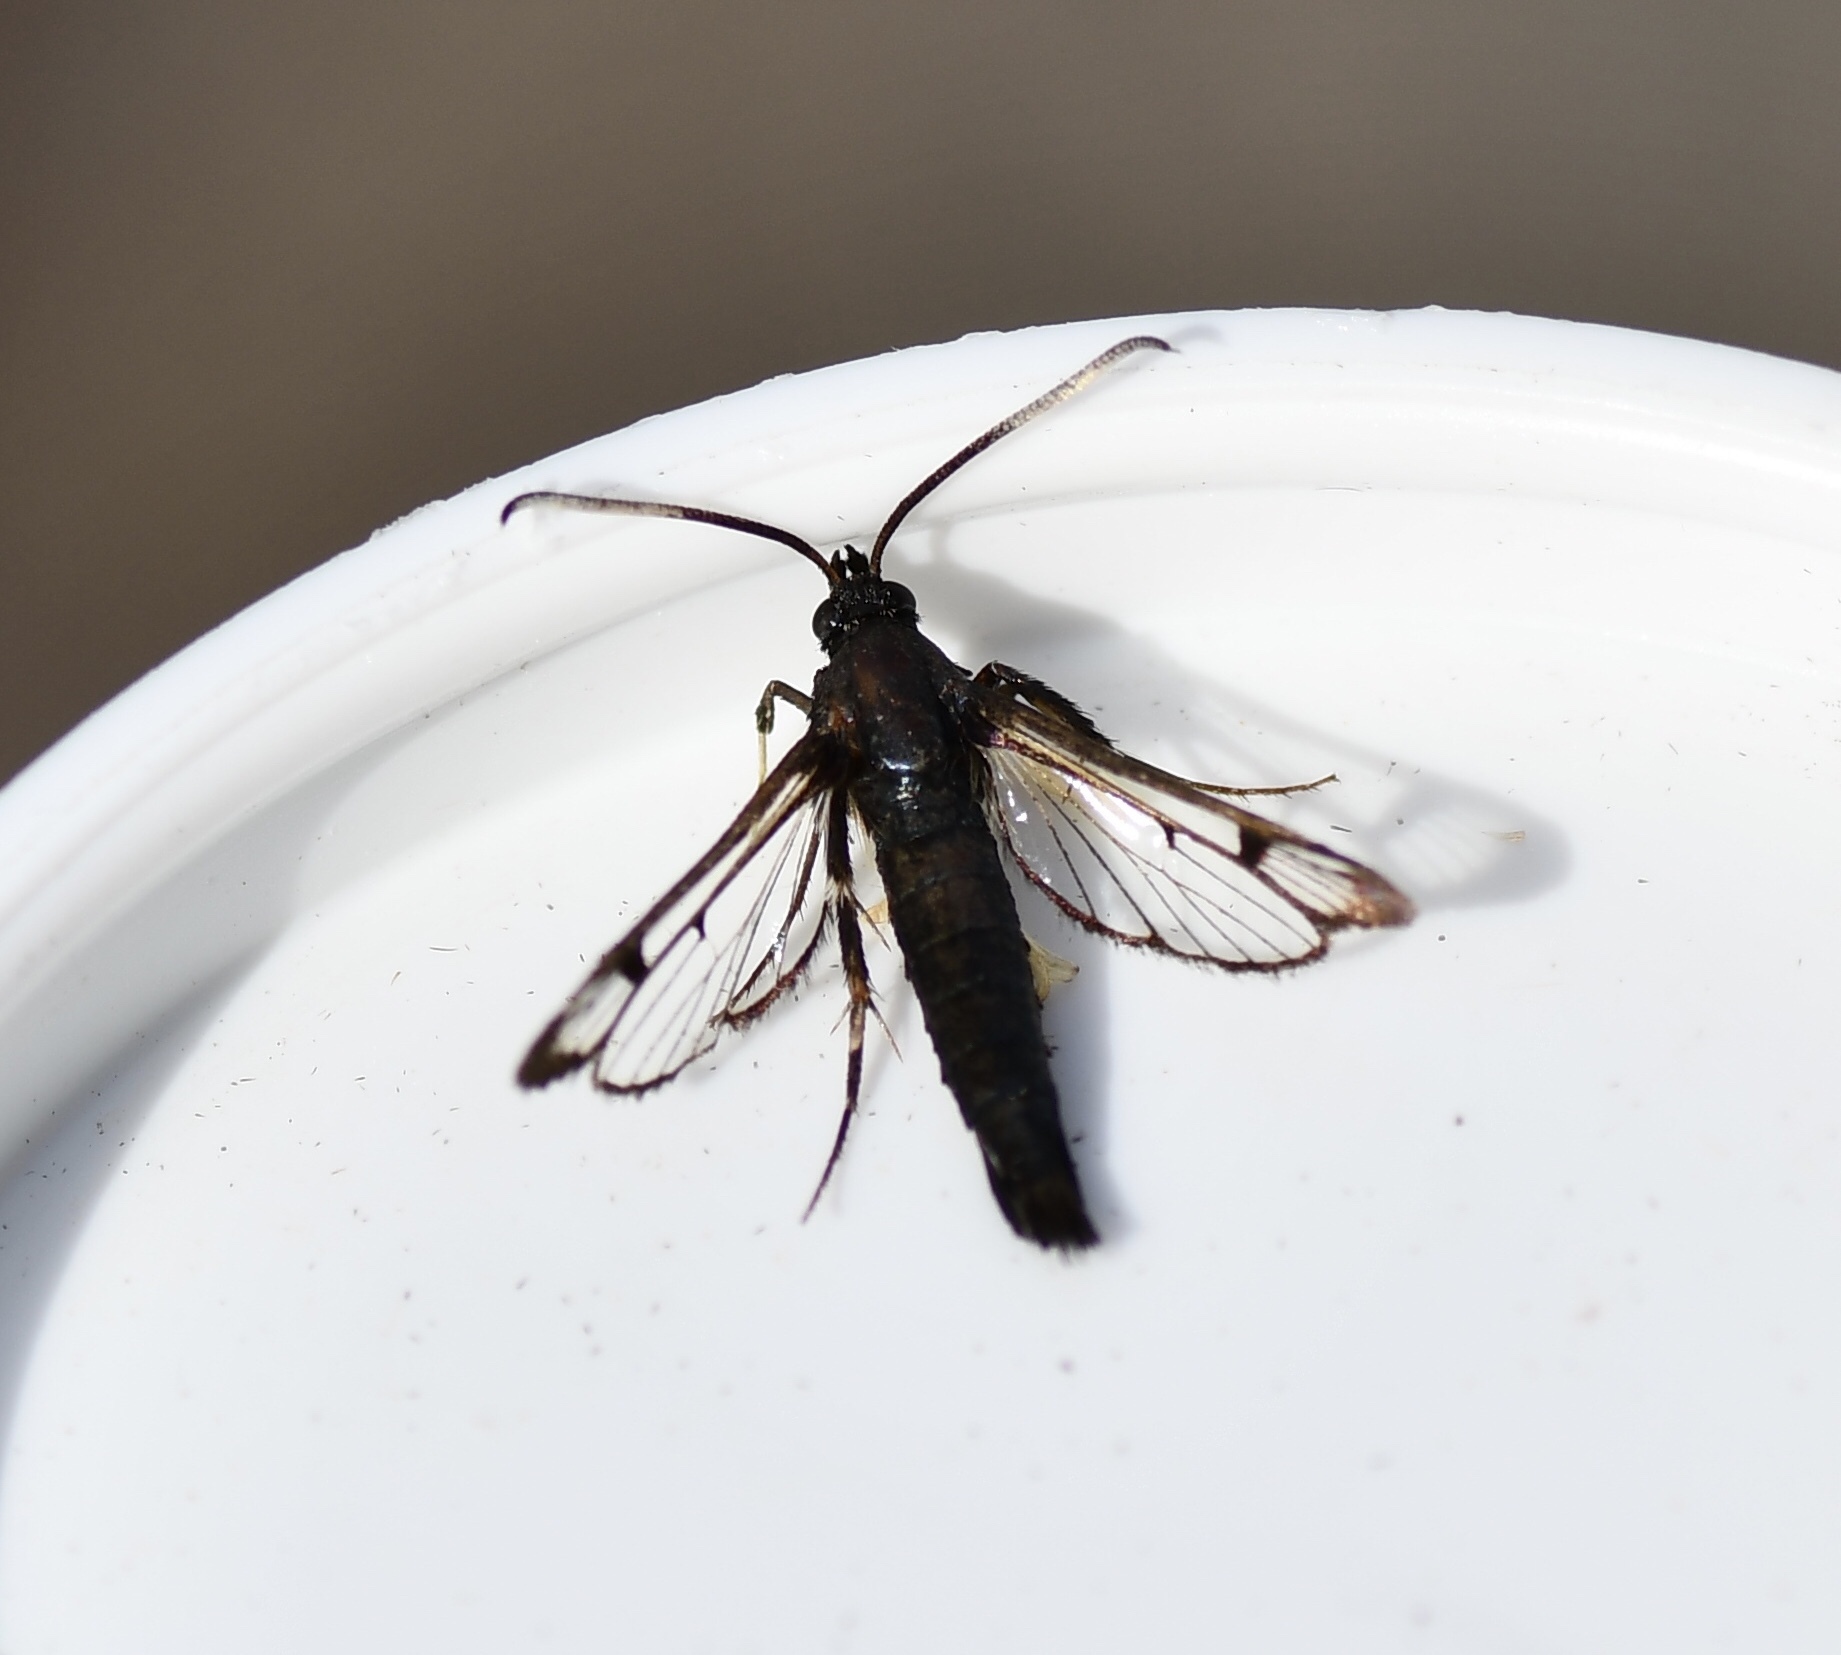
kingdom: Animalia
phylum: Arthropoda
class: Insecta
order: Lepidoptera
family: Sesiidae
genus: Synanthedon
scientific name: Synanthedon proxima
